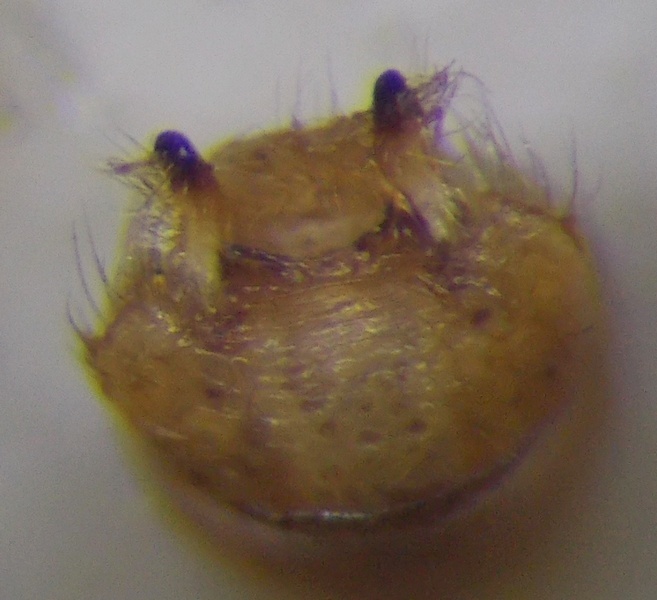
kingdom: Animalia
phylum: Arthropoda
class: Insecta
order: Hemiptera
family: Rhopalidae
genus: Rhopalus
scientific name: Rhopalus parumpunctatus
